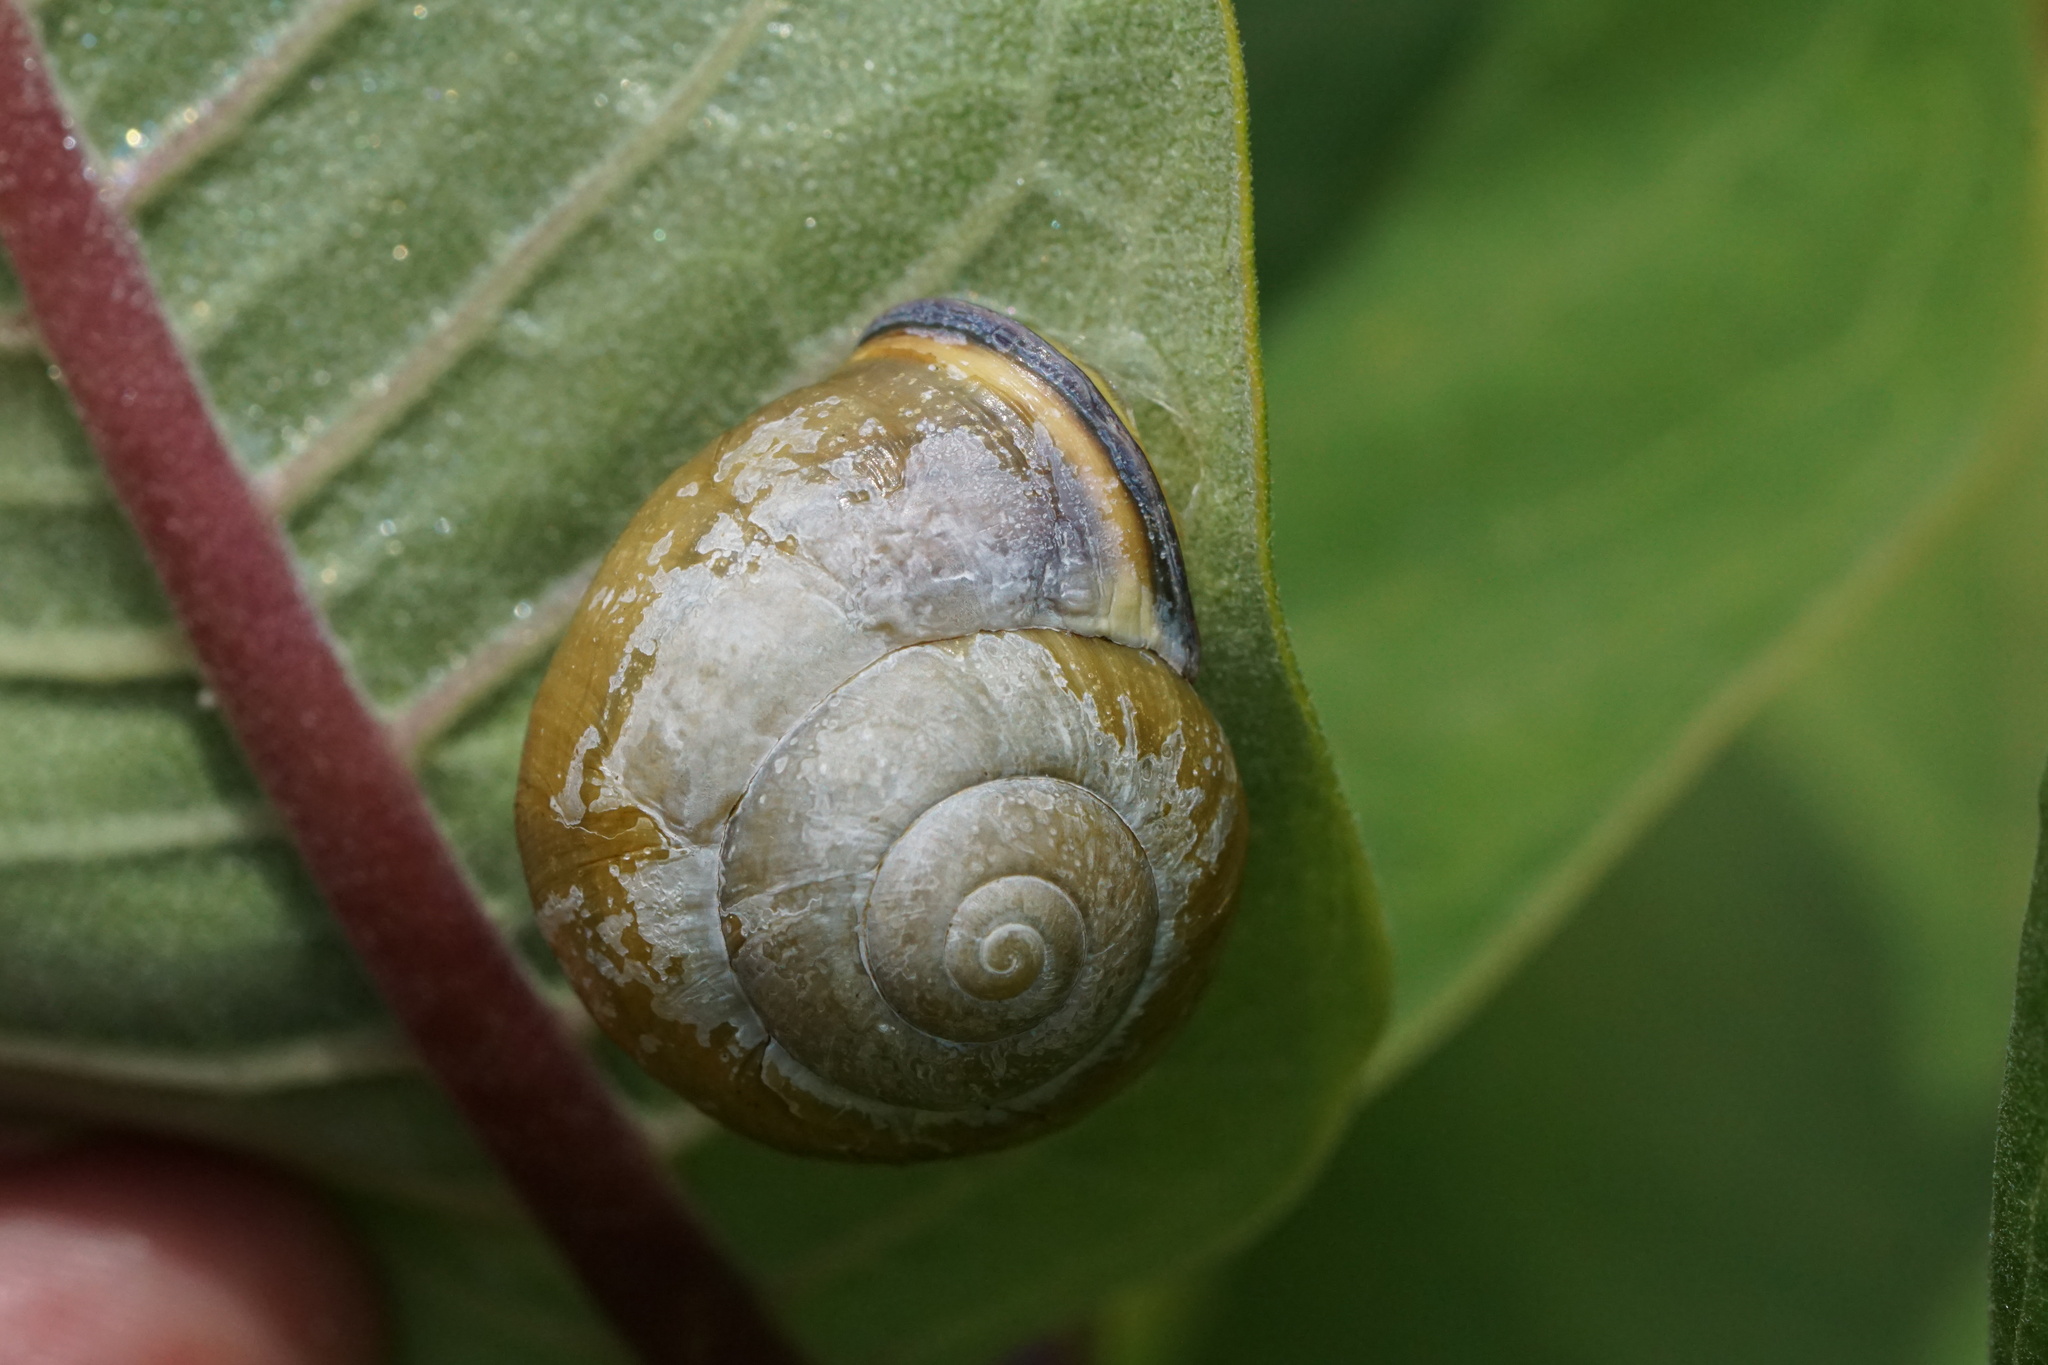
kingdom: Animalia
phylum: Mollusca
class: Gastropoda
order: Stylommatophora
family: Helicidae
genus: Cepaea
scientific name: Cepaea nemoralis
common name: Grovesnail
